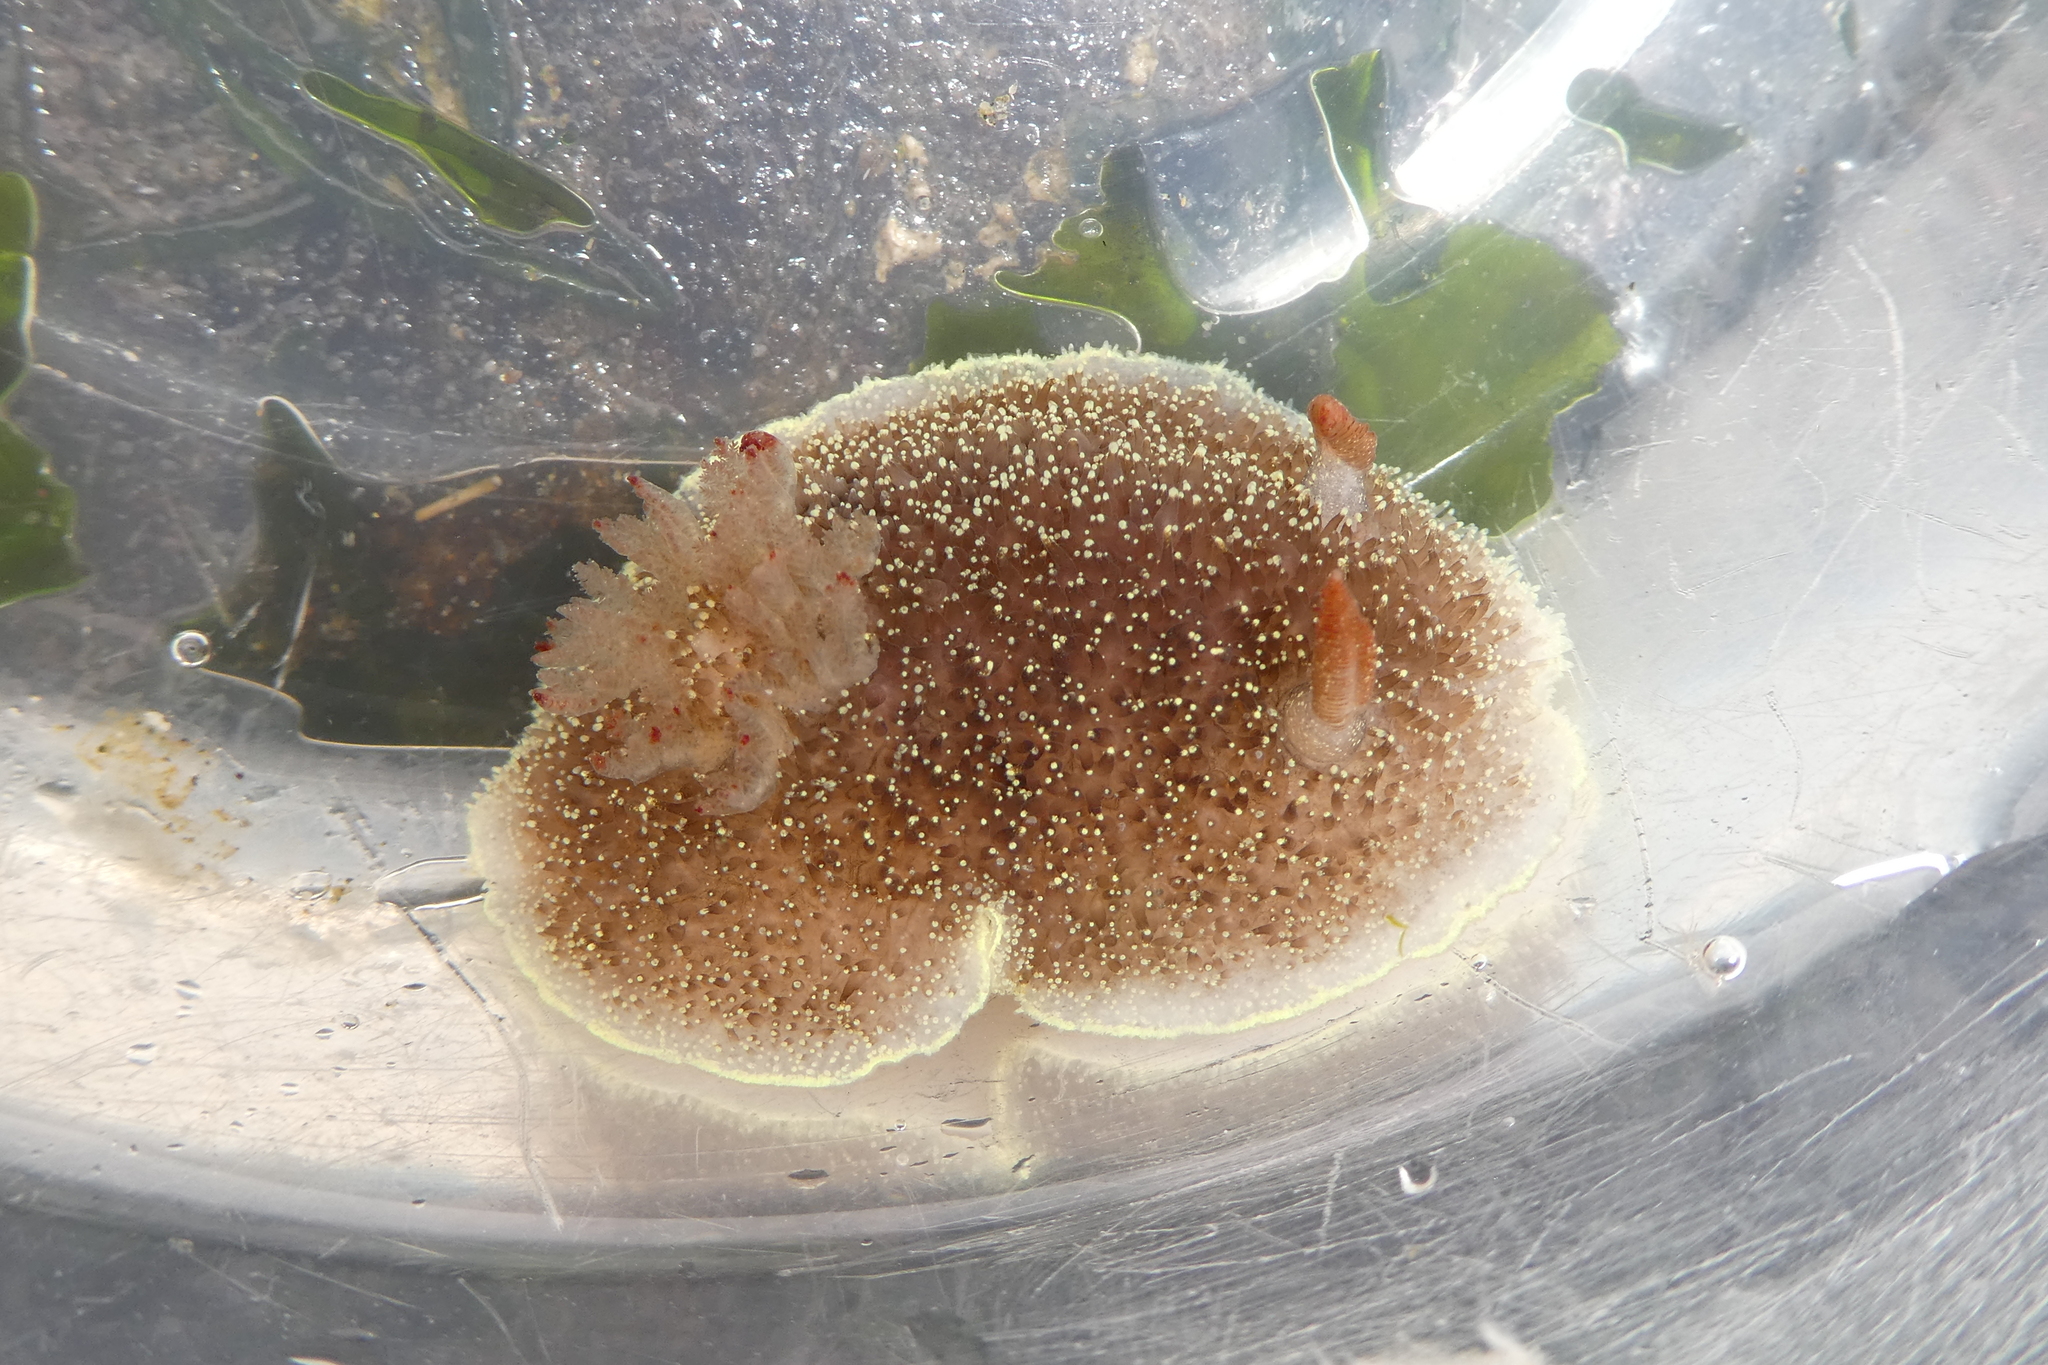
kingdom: Animalia
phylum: Mollusca
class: Gastropoda
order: Nudibranchia
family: Onchidorididae
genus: Acanthodoris
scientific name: Acanthodoris nanaimoensis
